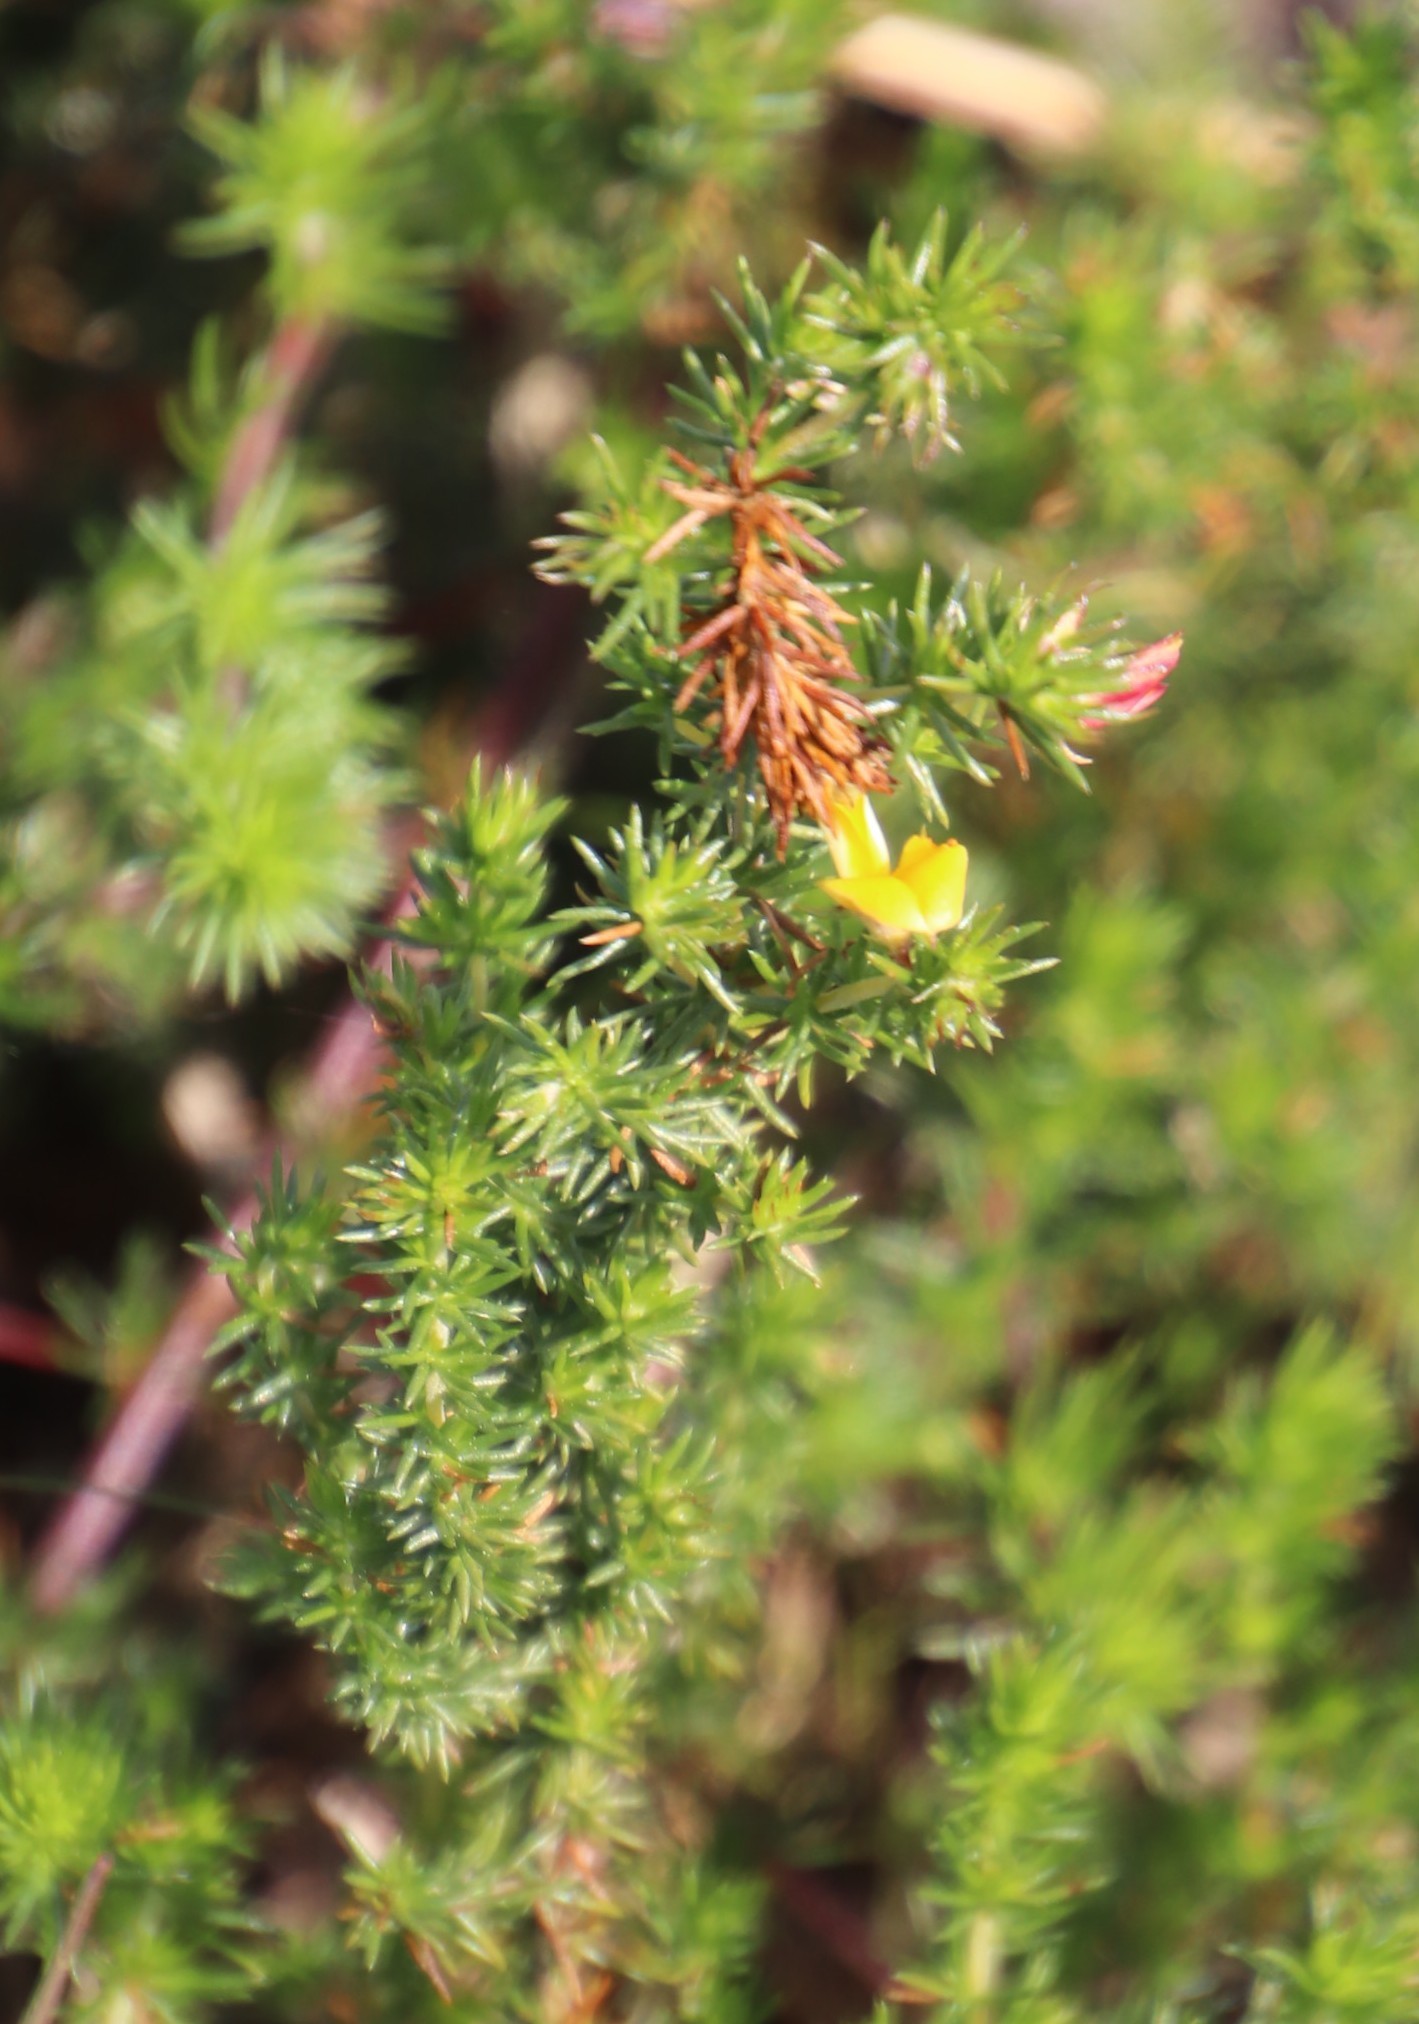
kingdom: Plantae
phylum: Tracheophyta
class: Magnoliopsida
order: Fabales
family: Fabaceae
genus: Aspalathus
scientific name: Aspalathus retroflexa
